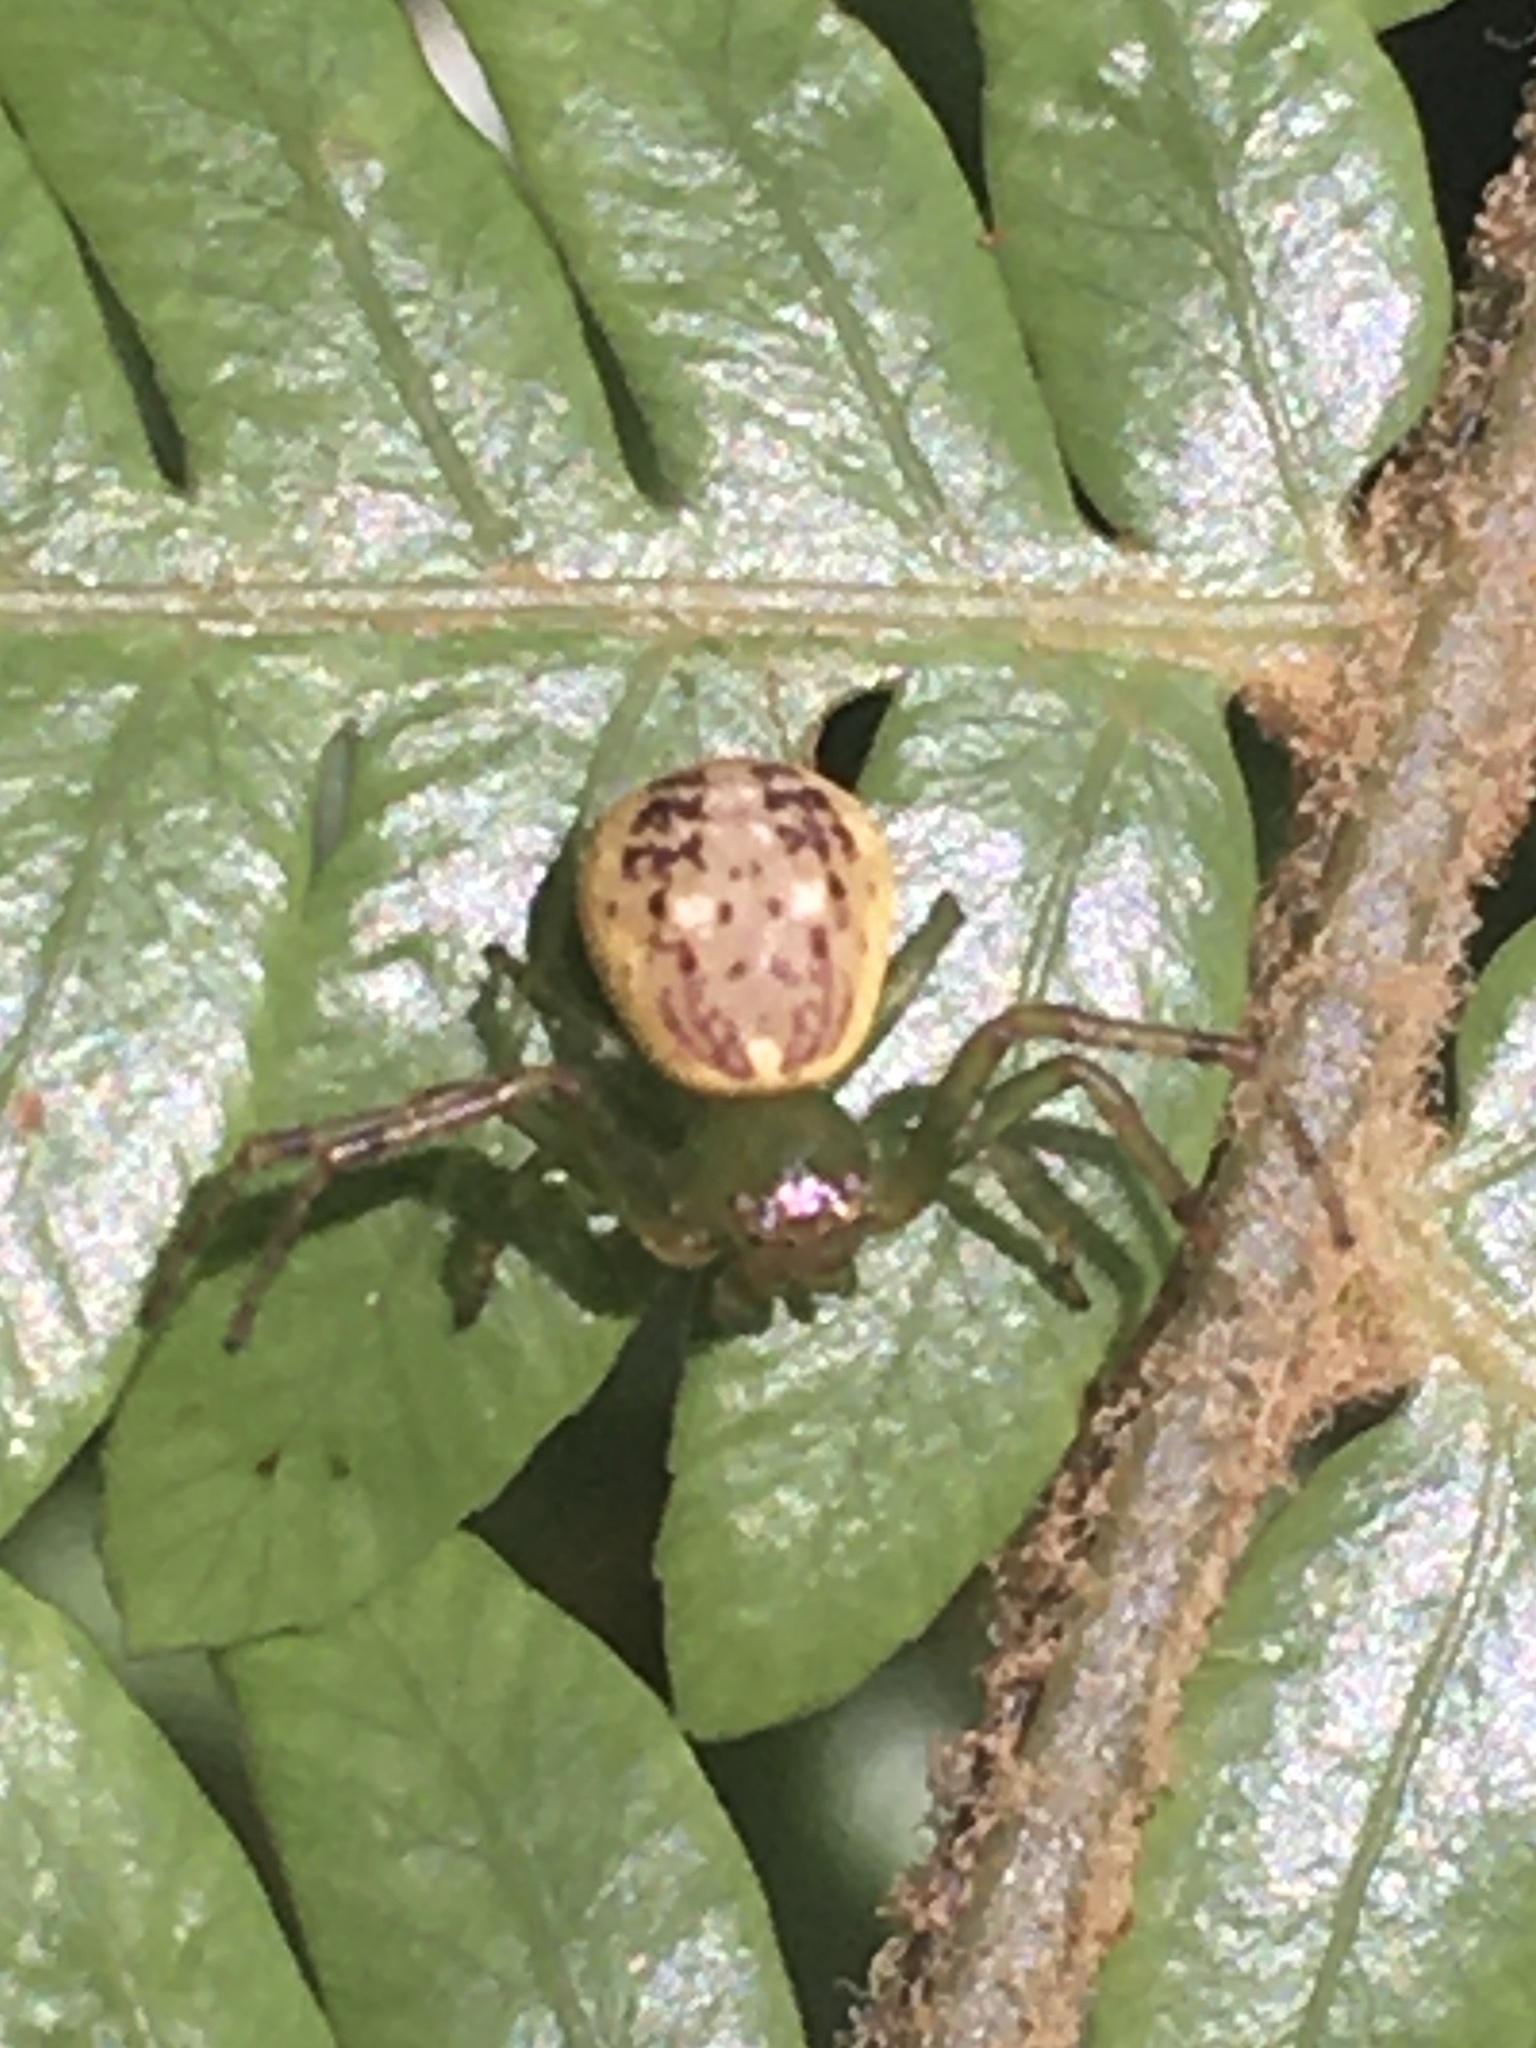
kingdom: Animalia
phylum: Arthropoda
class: Arachnida
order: Araneae
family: Thomisidae
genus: Diaea
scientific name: Diaea ambara
